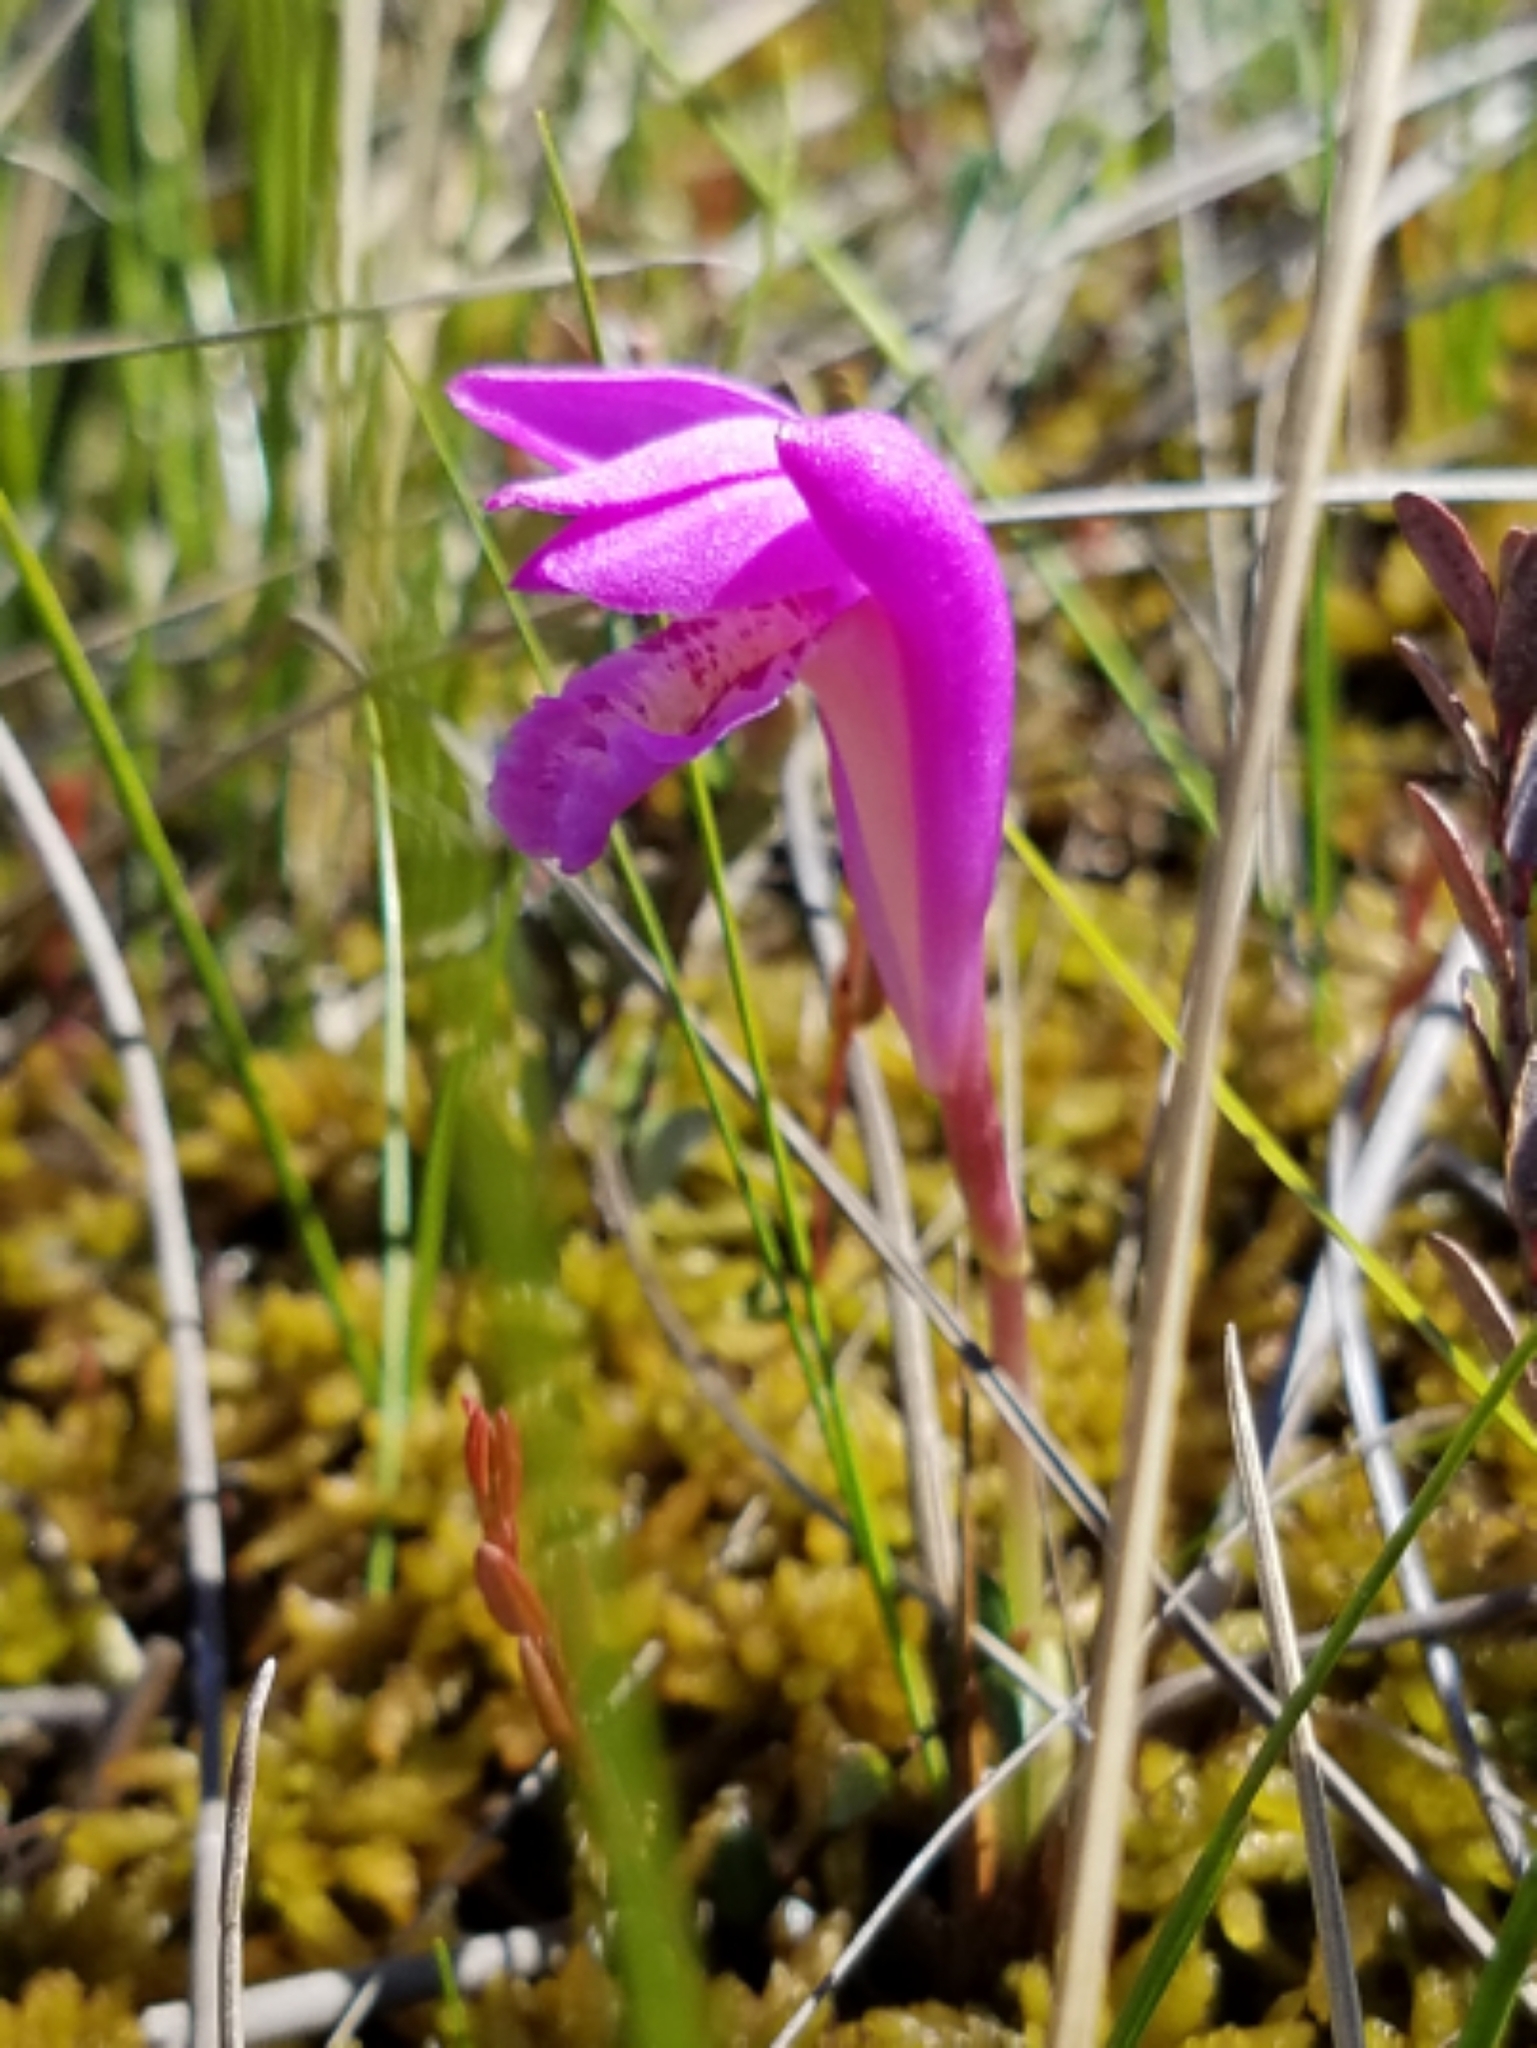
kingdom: Plantae
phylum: Tracheophyta
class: Liliopsida
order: Asparagales
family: Orchidaceae
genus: Arethusa
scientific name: Arethusa bulbosa
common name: Arethusa
